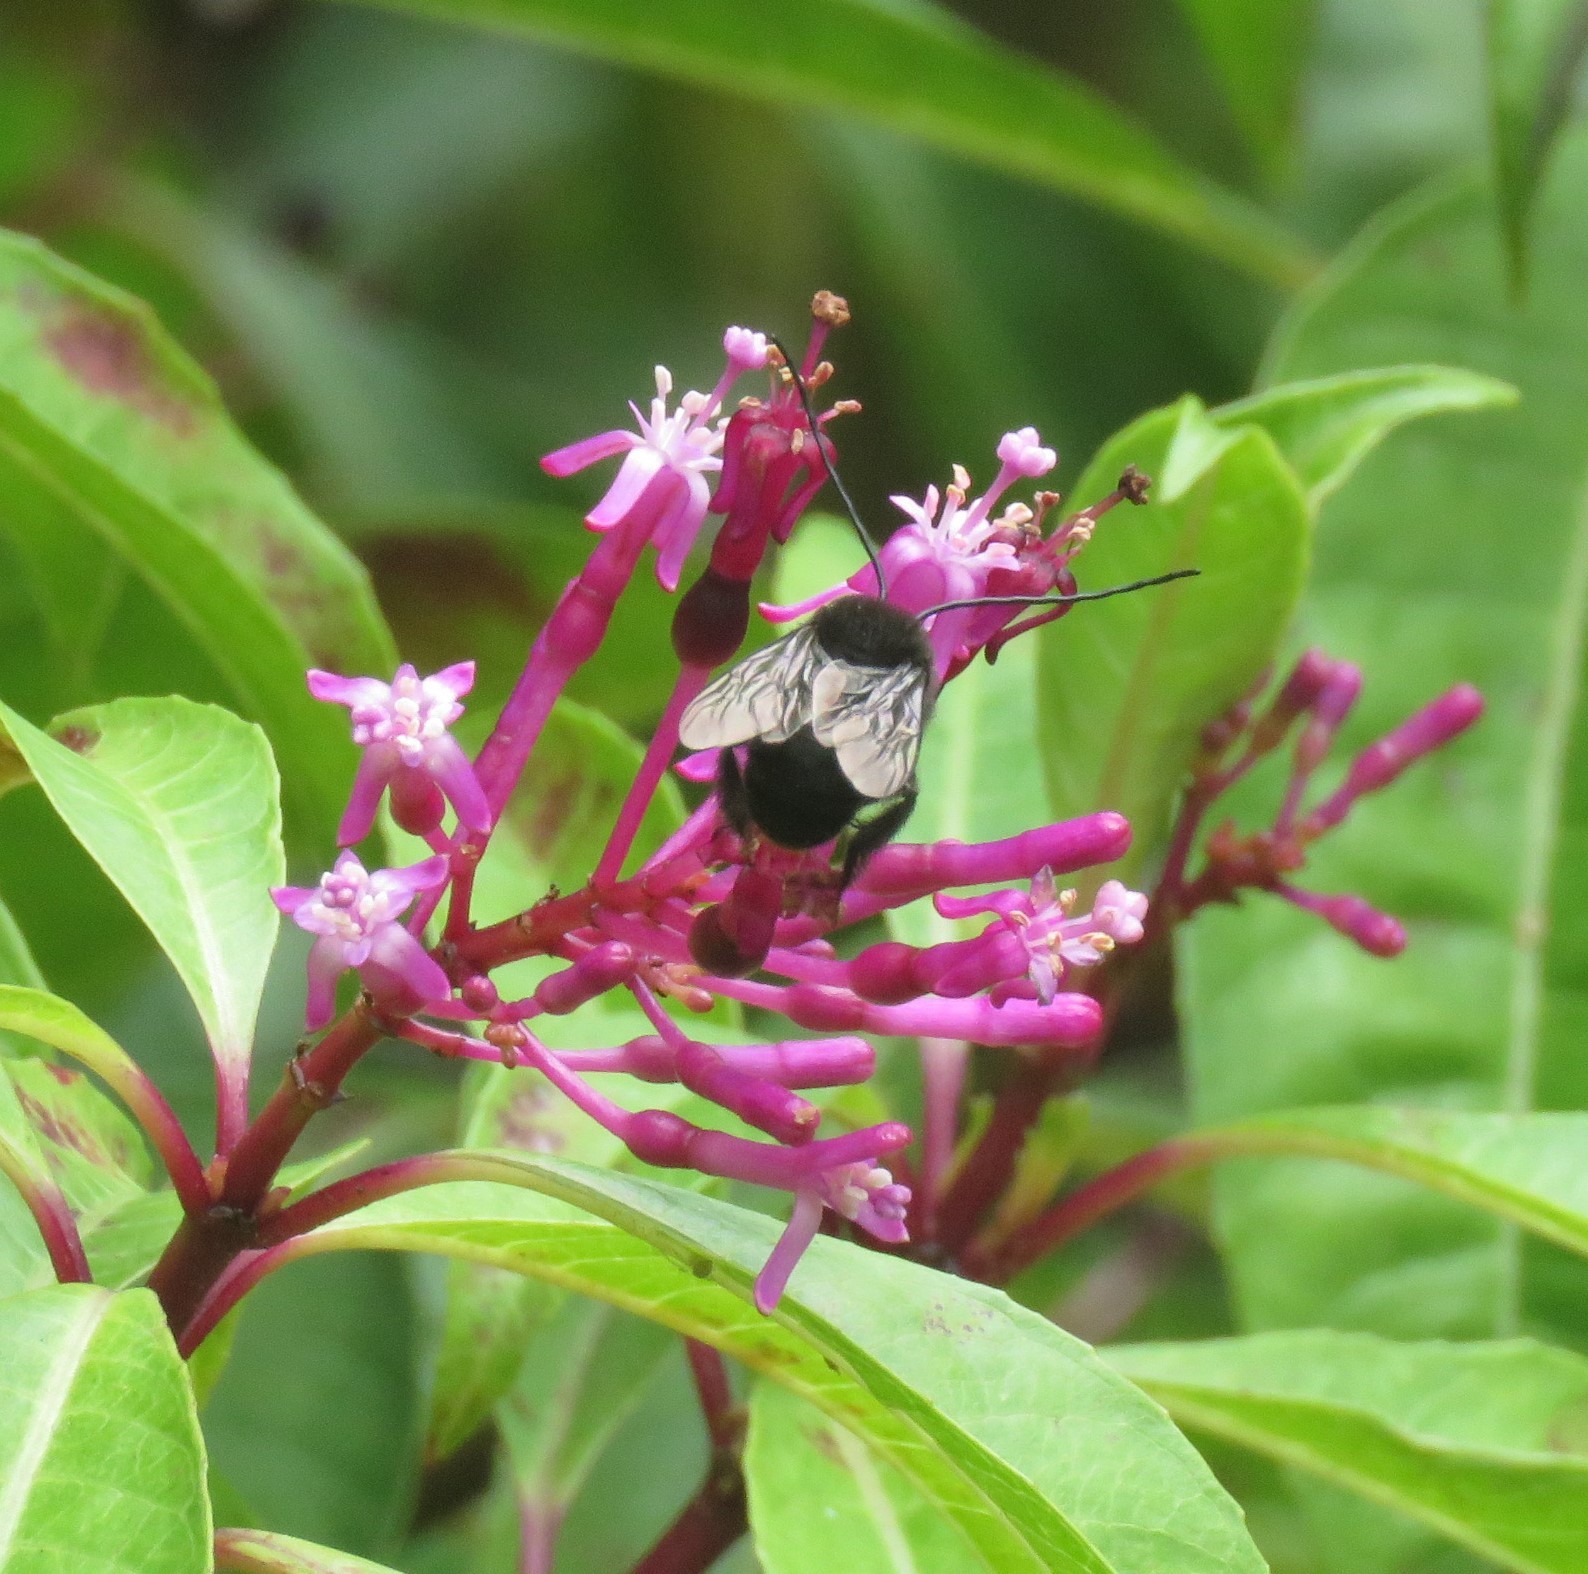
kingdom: Animalia
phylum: Arthropoda
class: Insecta
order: Hymenoptera
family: Apidae
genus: Thygater
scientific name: Thygater aethiops
